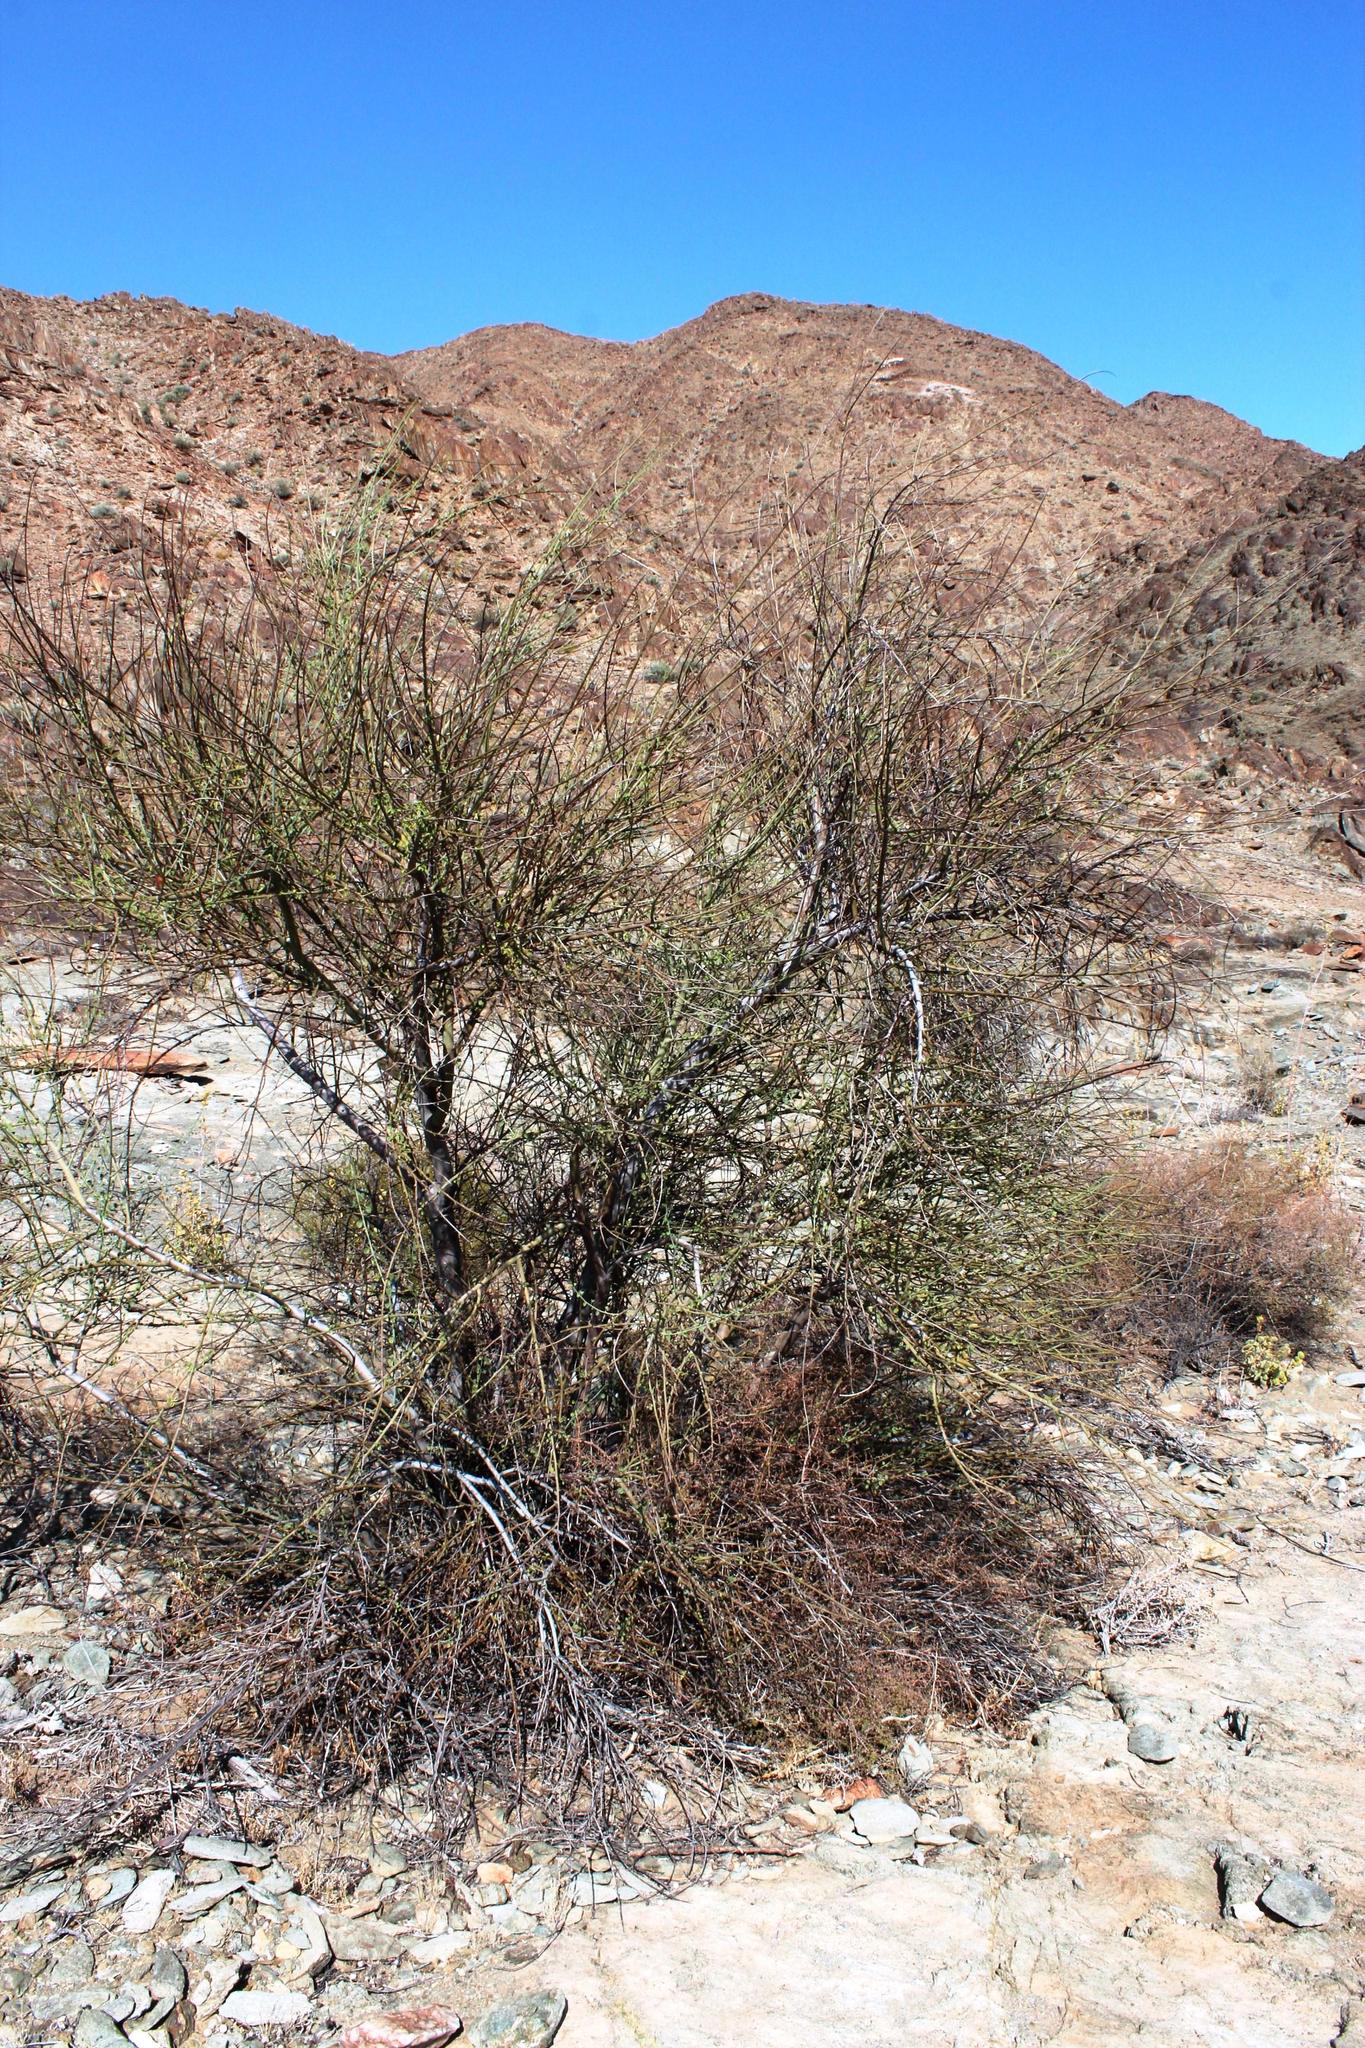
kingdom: Plantae
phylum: Tracheophyta
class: Magnoliopsida
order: Fabales
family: Fabaceae
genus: Adenolobus
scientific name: Adenolobus garipensis
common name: Butterfly-leaf
